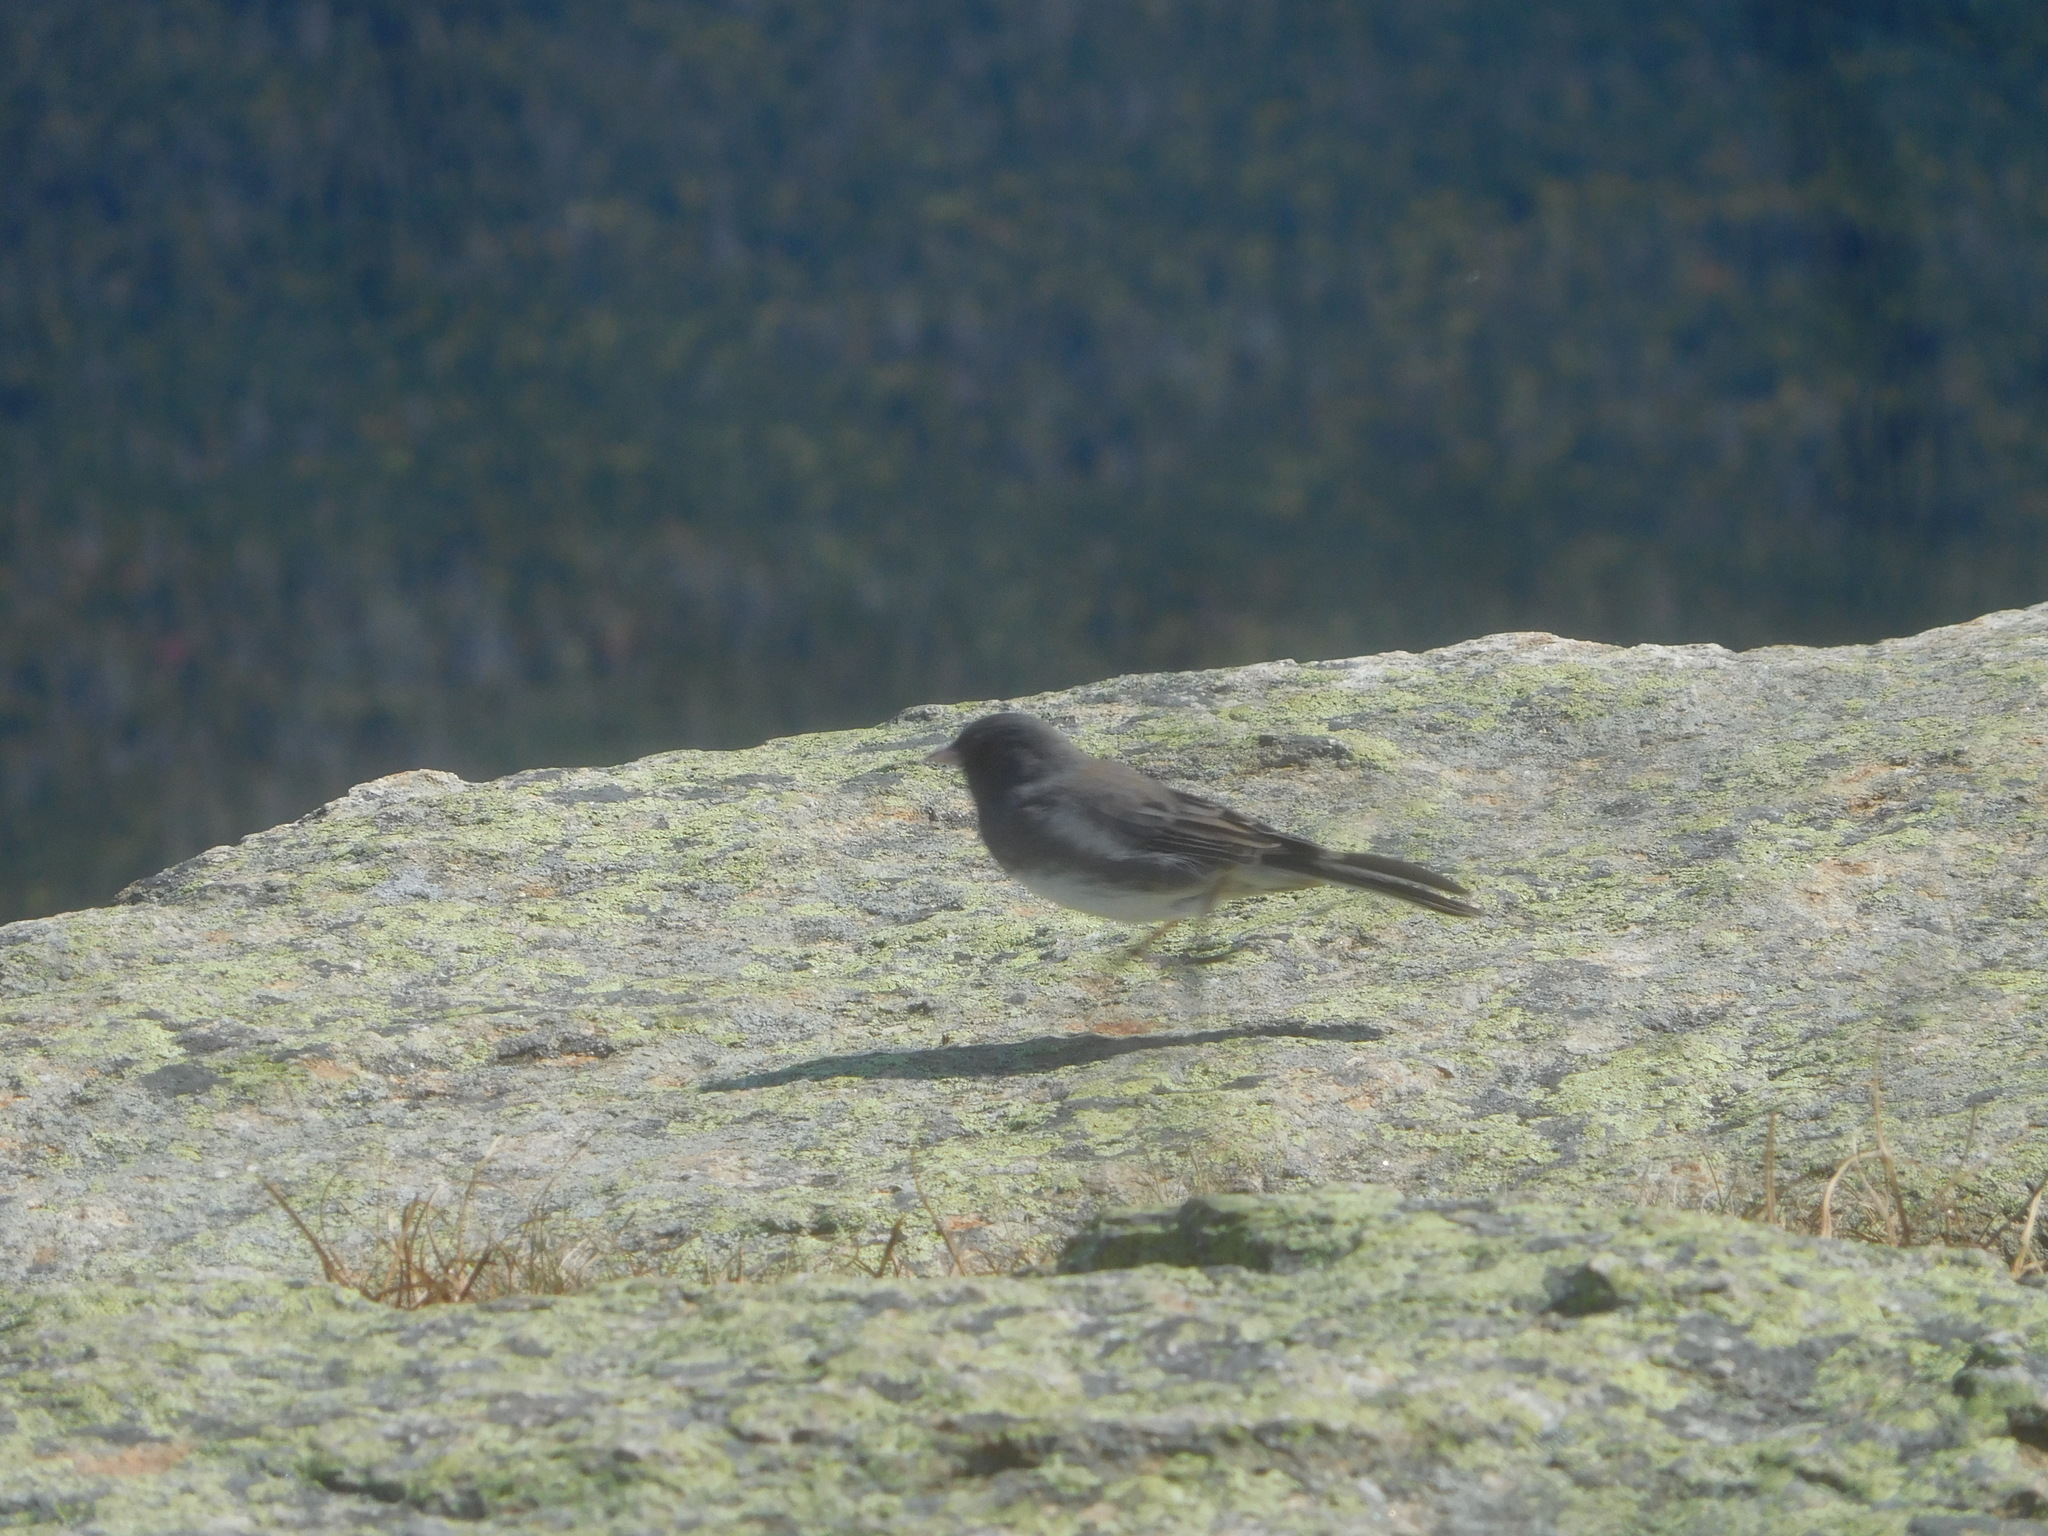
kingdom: Animalia
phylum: Chordata
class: Aves
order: Passeriformes
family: Passerellidae
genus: Junco
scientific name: Junco hyemalis
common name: Dark-eyed junco
